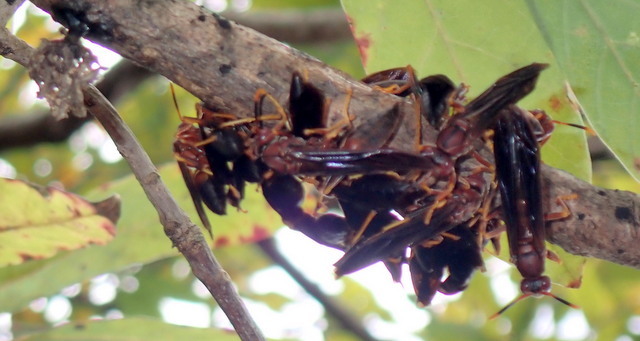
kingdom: Animalia
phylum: Arthropoda
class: Insecta
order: Hymenoptera
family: Eumenidae
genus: Polistes
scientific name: Polistes annularis
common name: Ringed paper wasp
